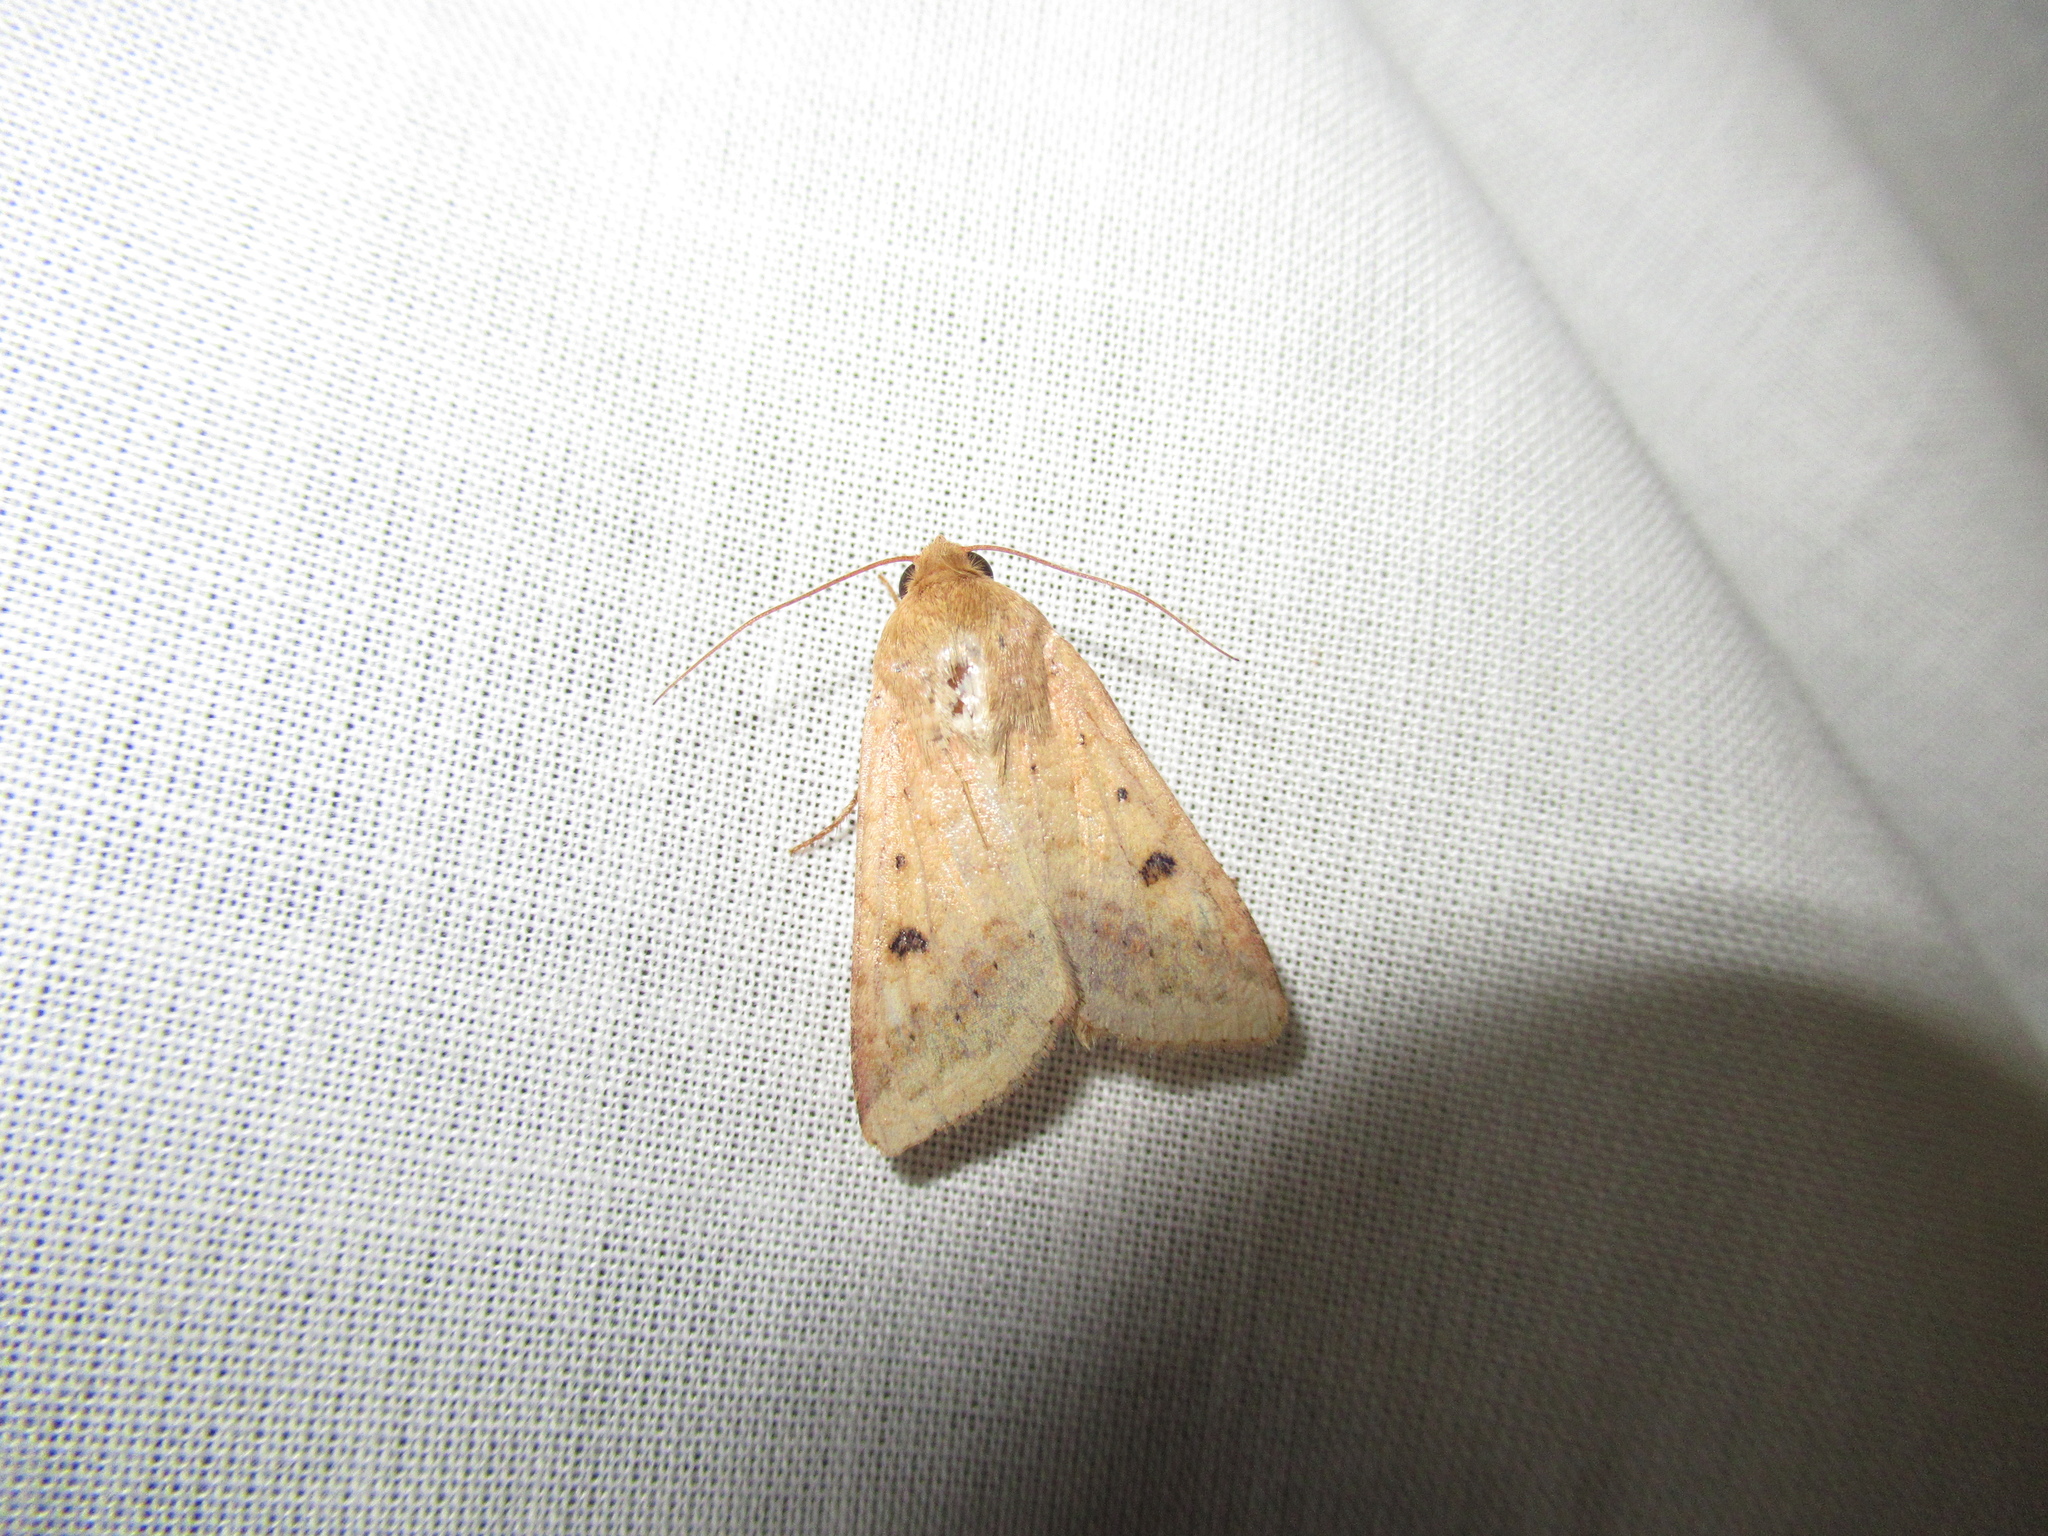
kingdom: Animalia
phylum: Arthropoda
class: Insecta
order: Lepidoptera
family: Noctuidae
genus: Helicoverpa
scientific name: Helicoverpa armigera
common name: Cotton bollworm
